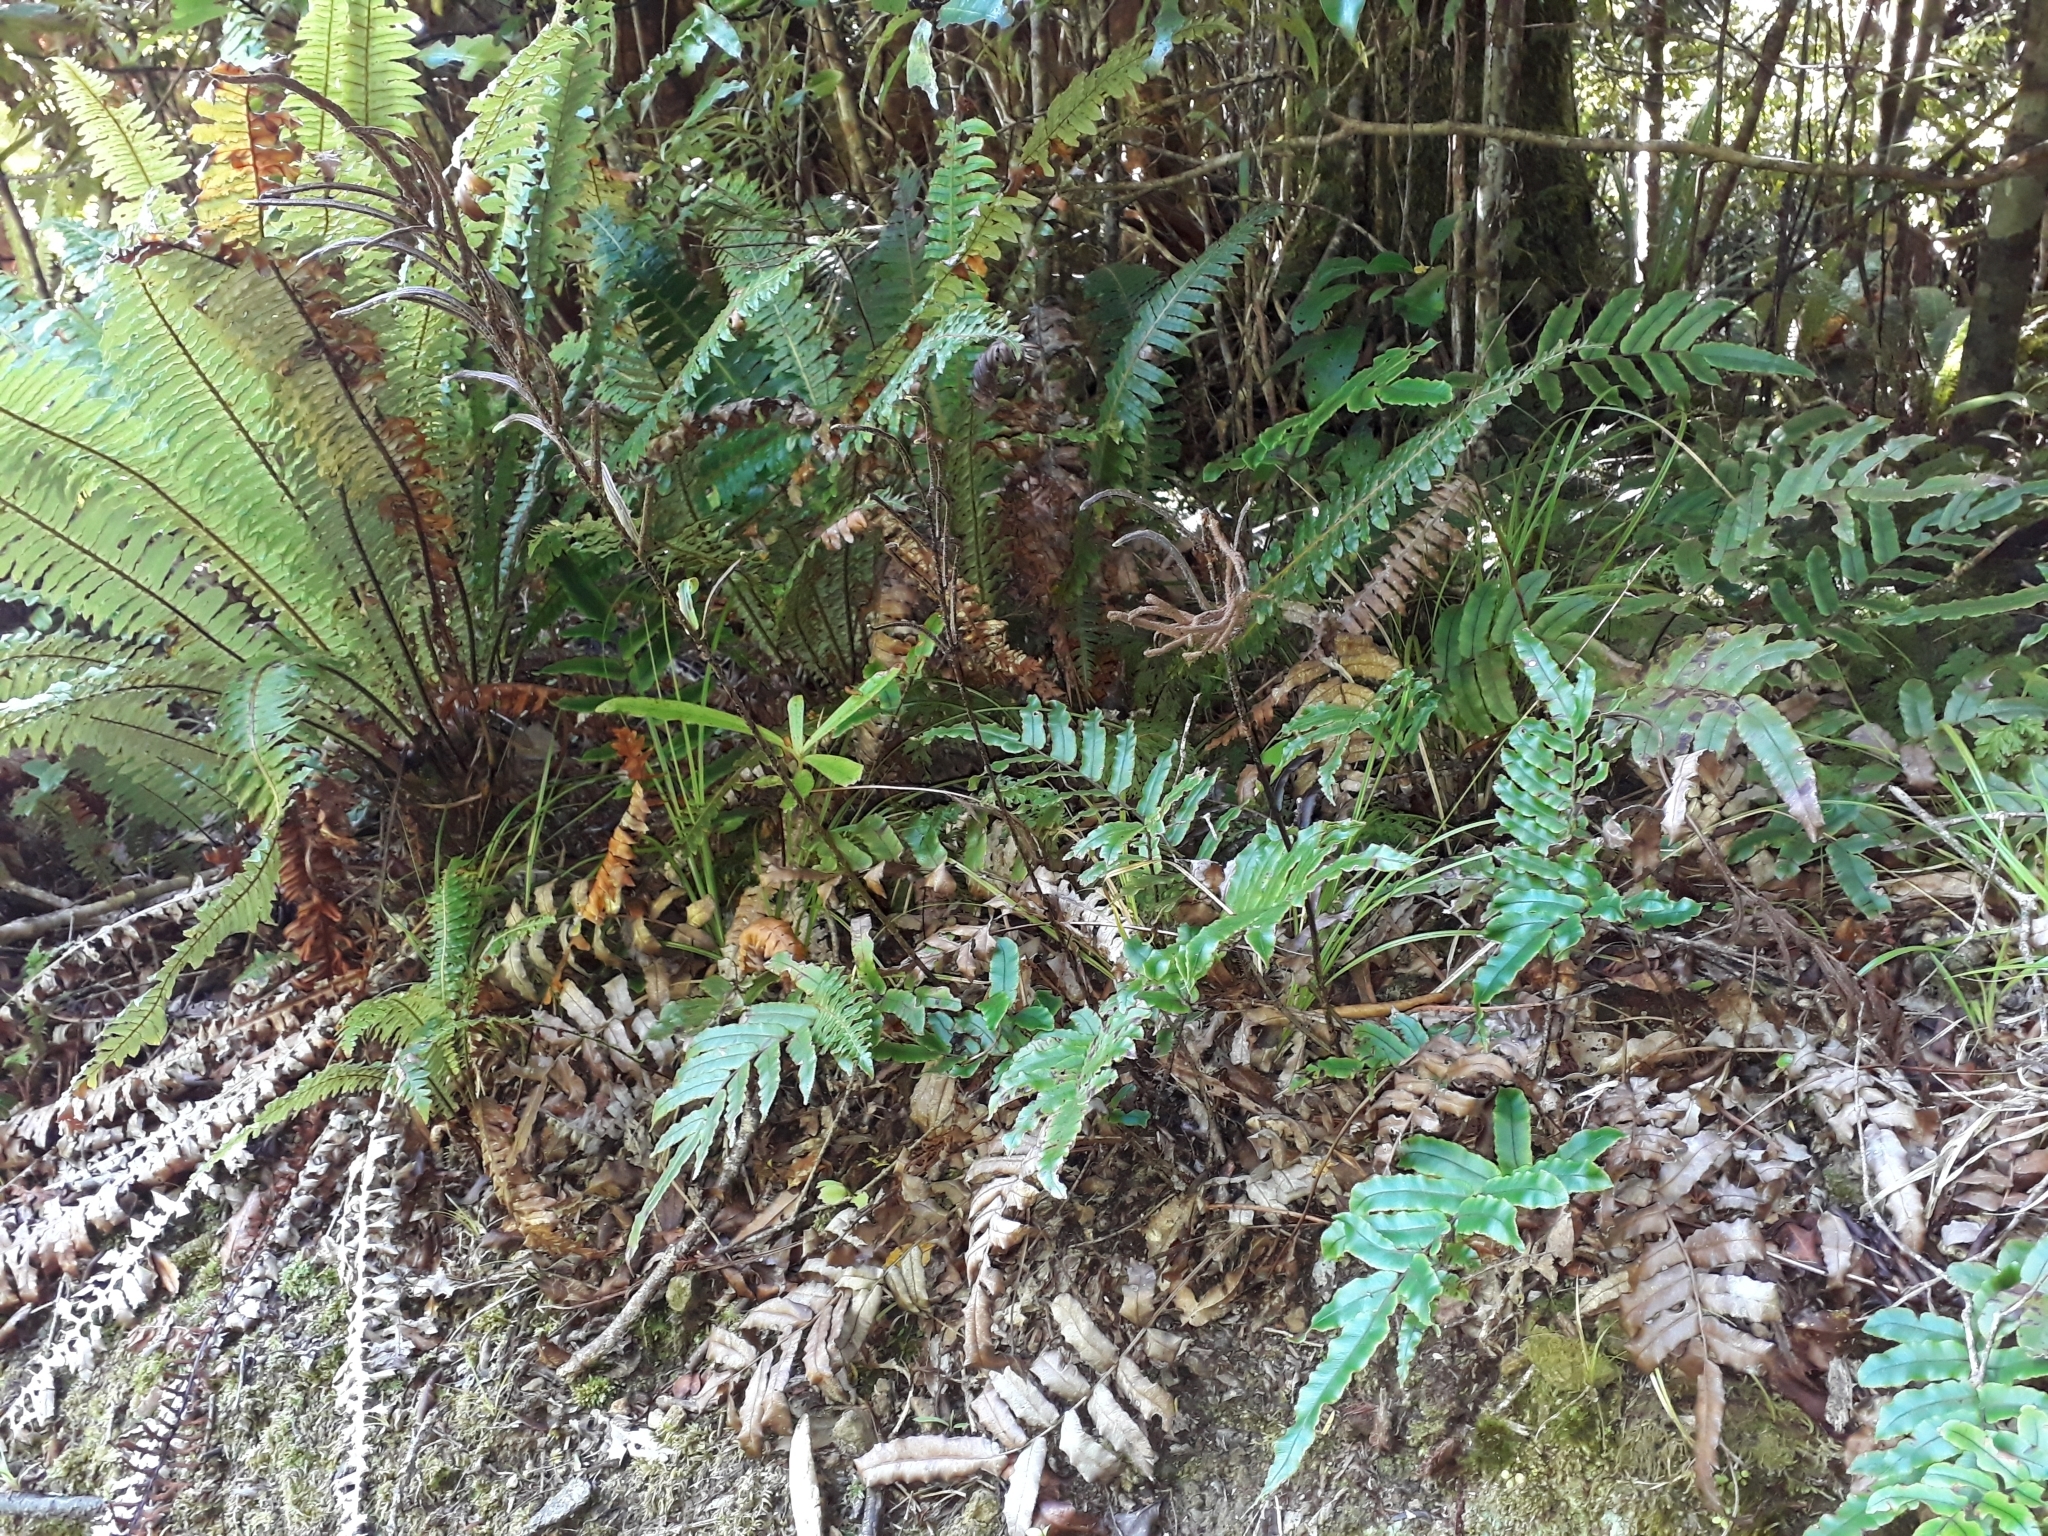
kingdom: Plantae
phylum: Tracheophyta
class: Polypodiopsida
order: Polypodiales
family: Blechnaceae
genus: Parablechnum
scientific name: Parablechnum procerum
